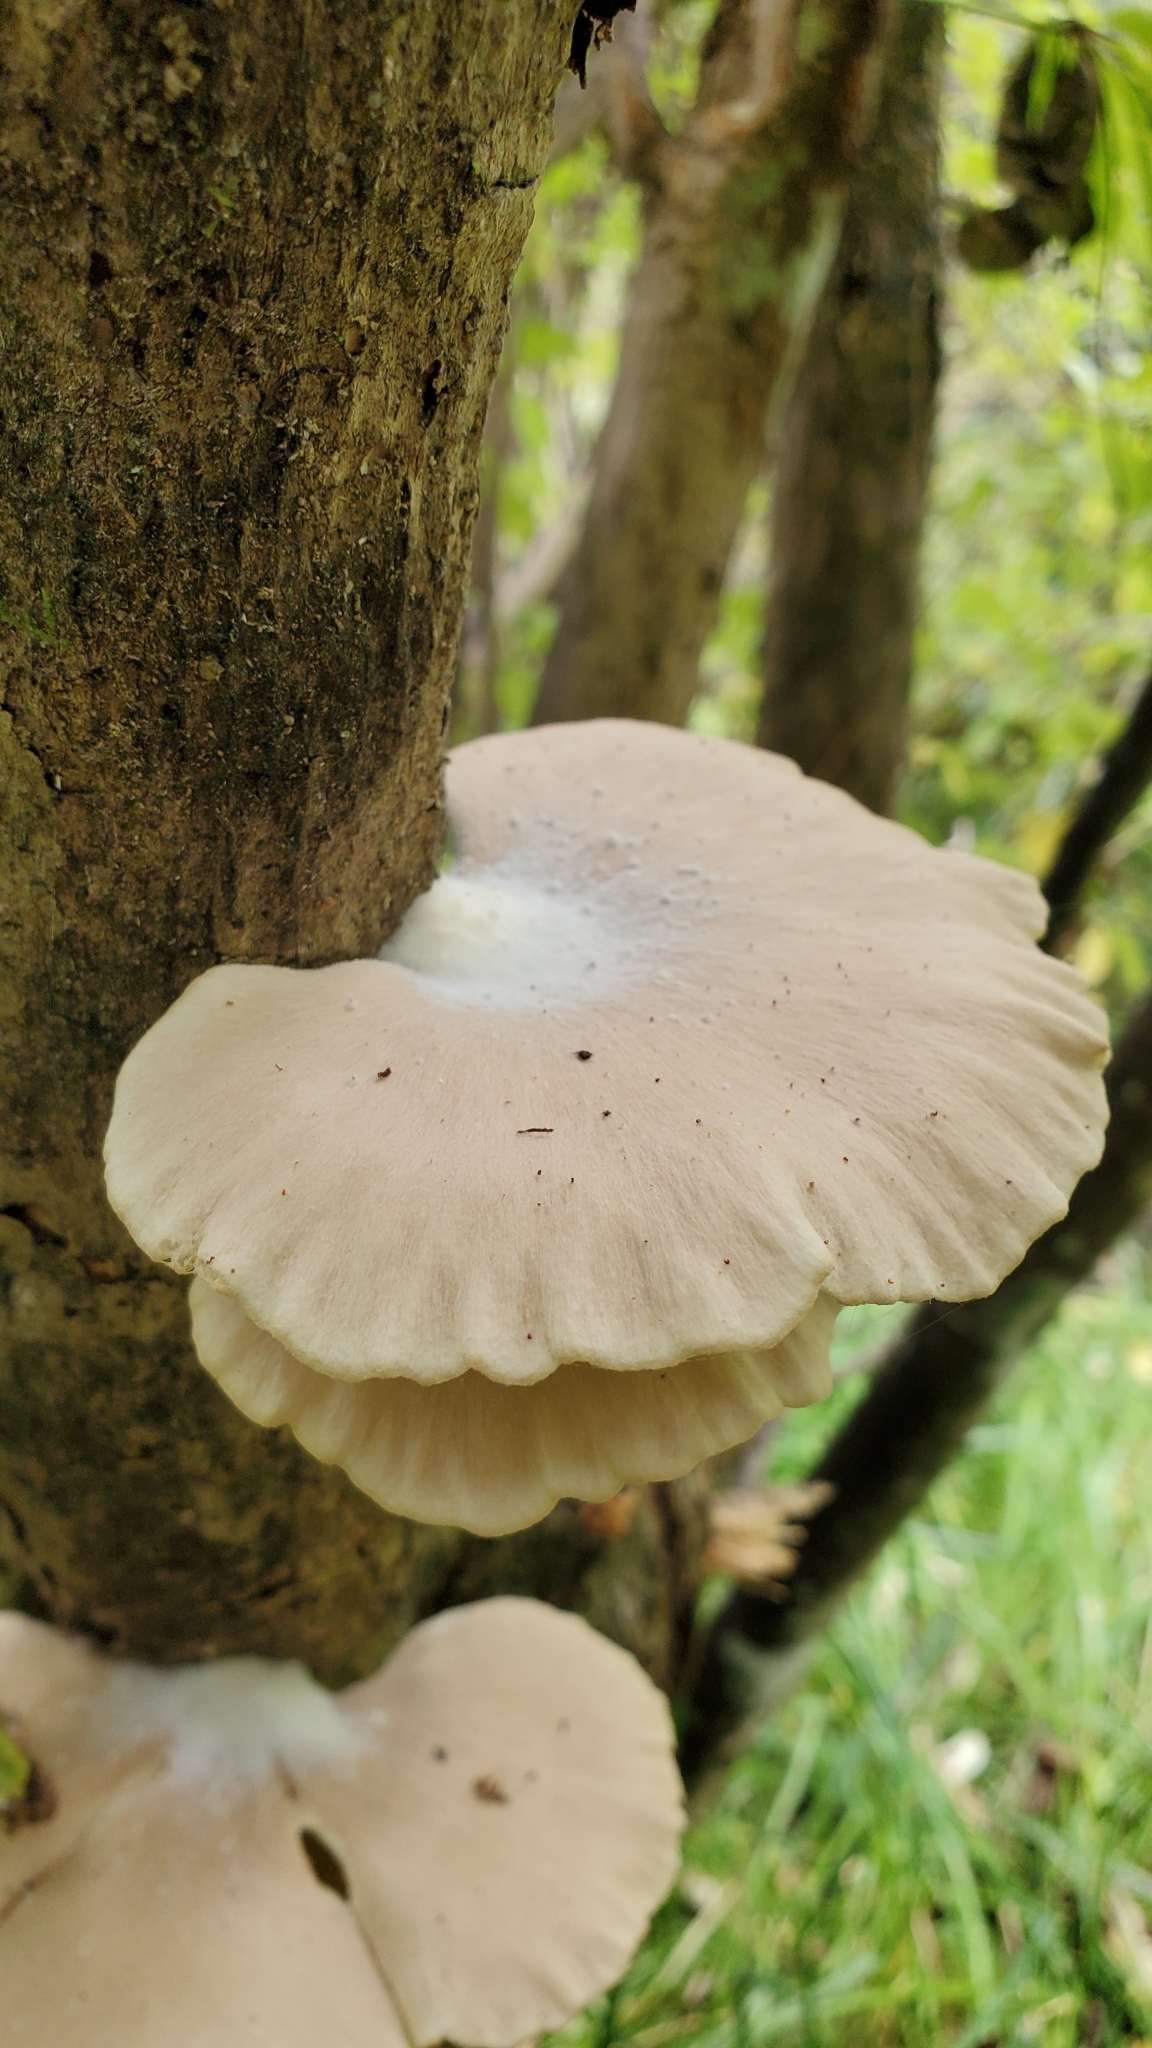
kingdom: Fungi
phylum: Basidiomycota
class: Agaricomycetes
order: Agaricales
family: Pleurotaceae
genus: Pleurotus
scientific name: Pleurotus parsonsiae
